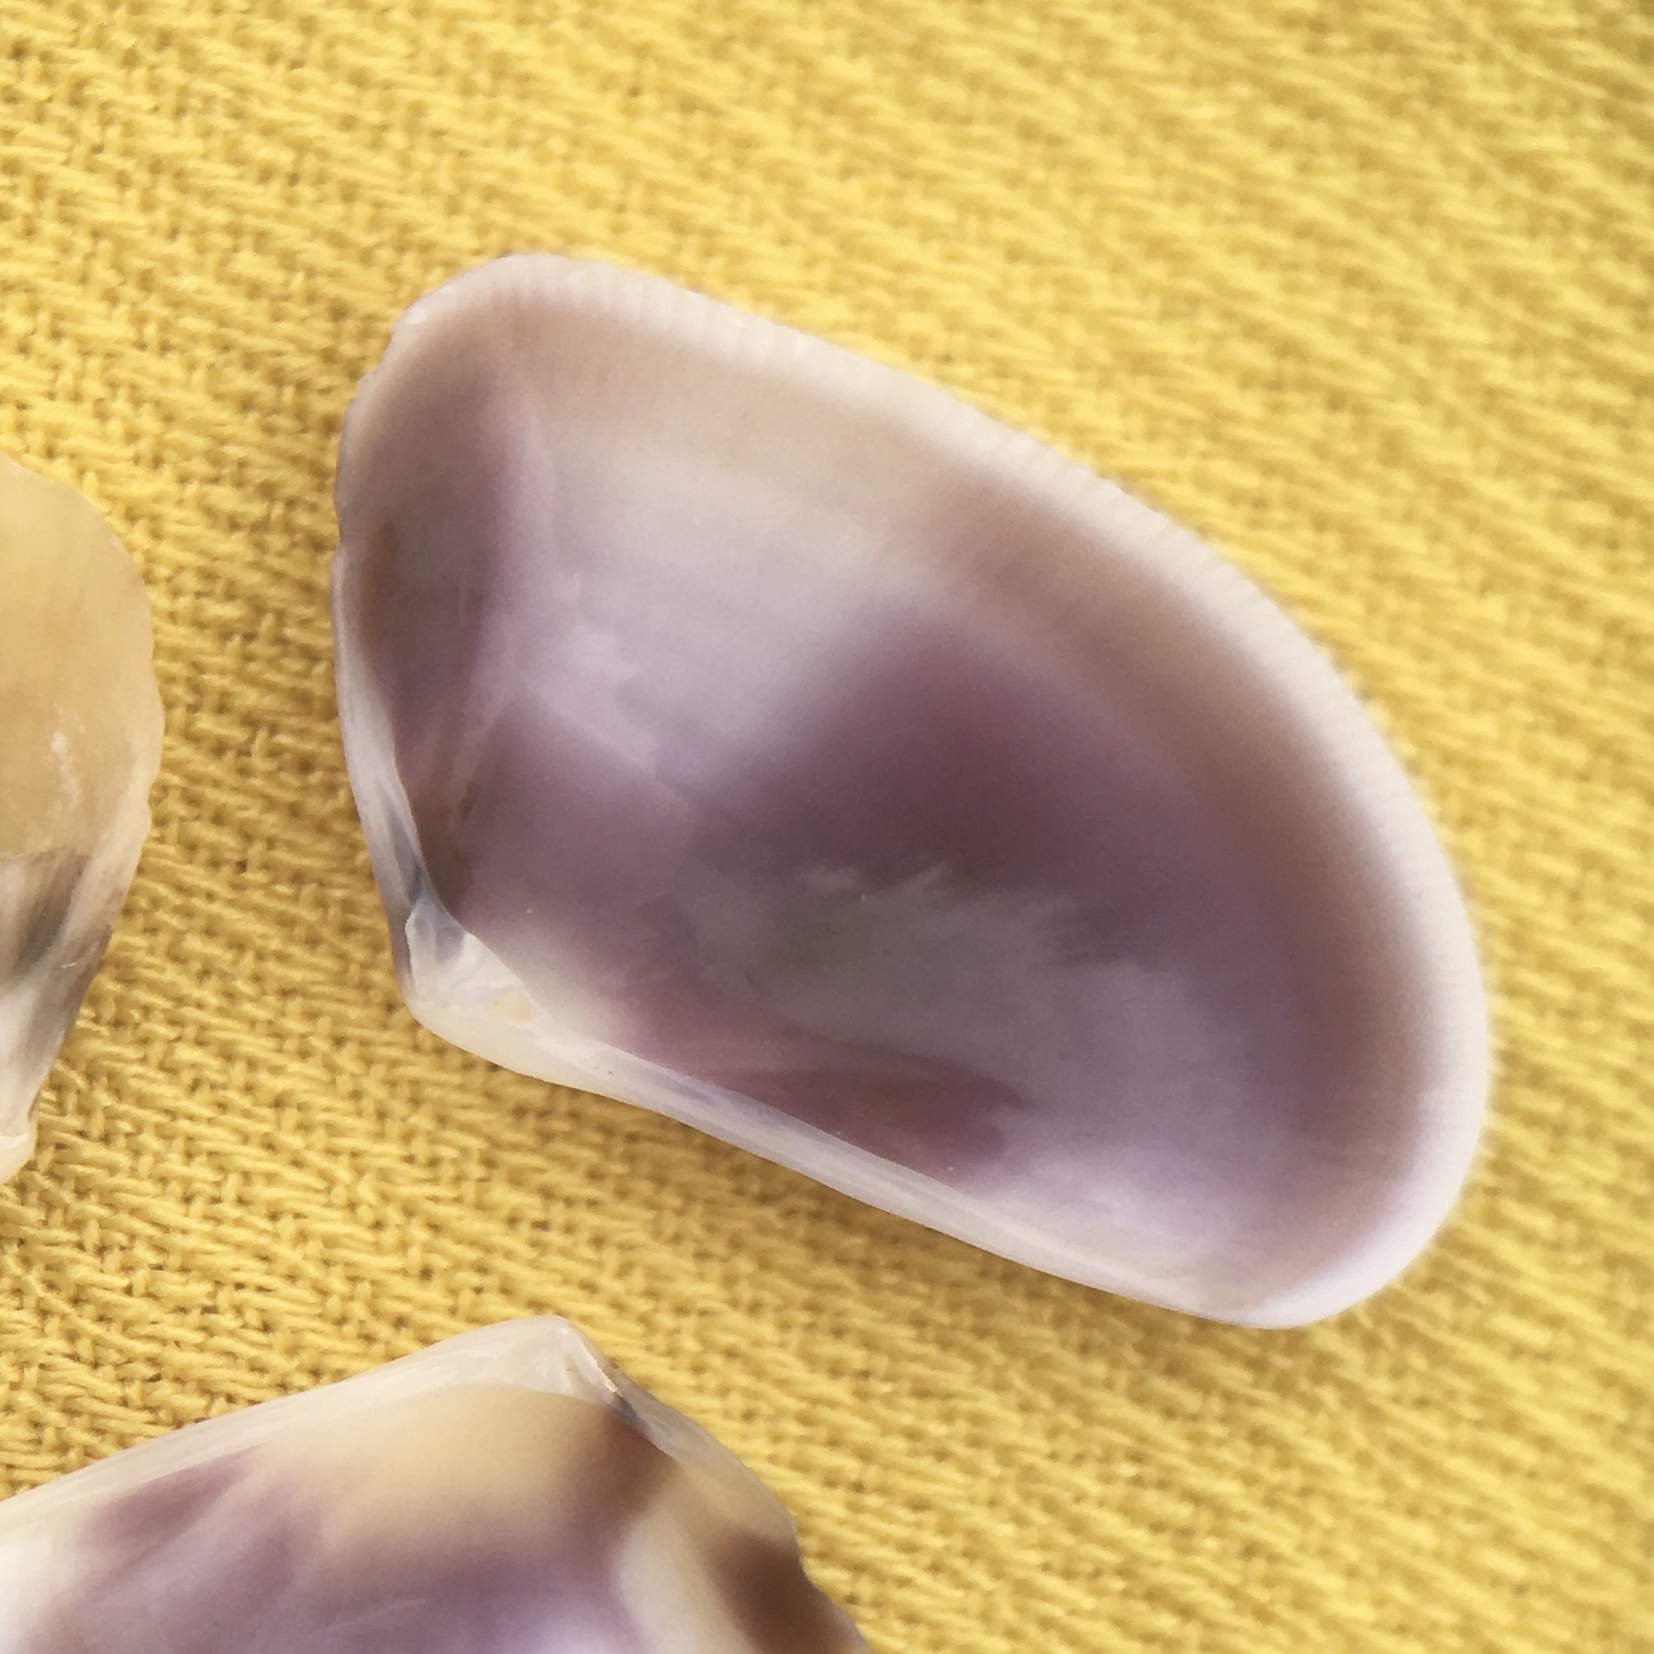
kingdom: Animalia
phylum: Mollusca
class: Bivalvia
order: Cardiida
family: Donacidae
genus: Donax
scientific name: Donax trunculus
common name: Truncate donax
